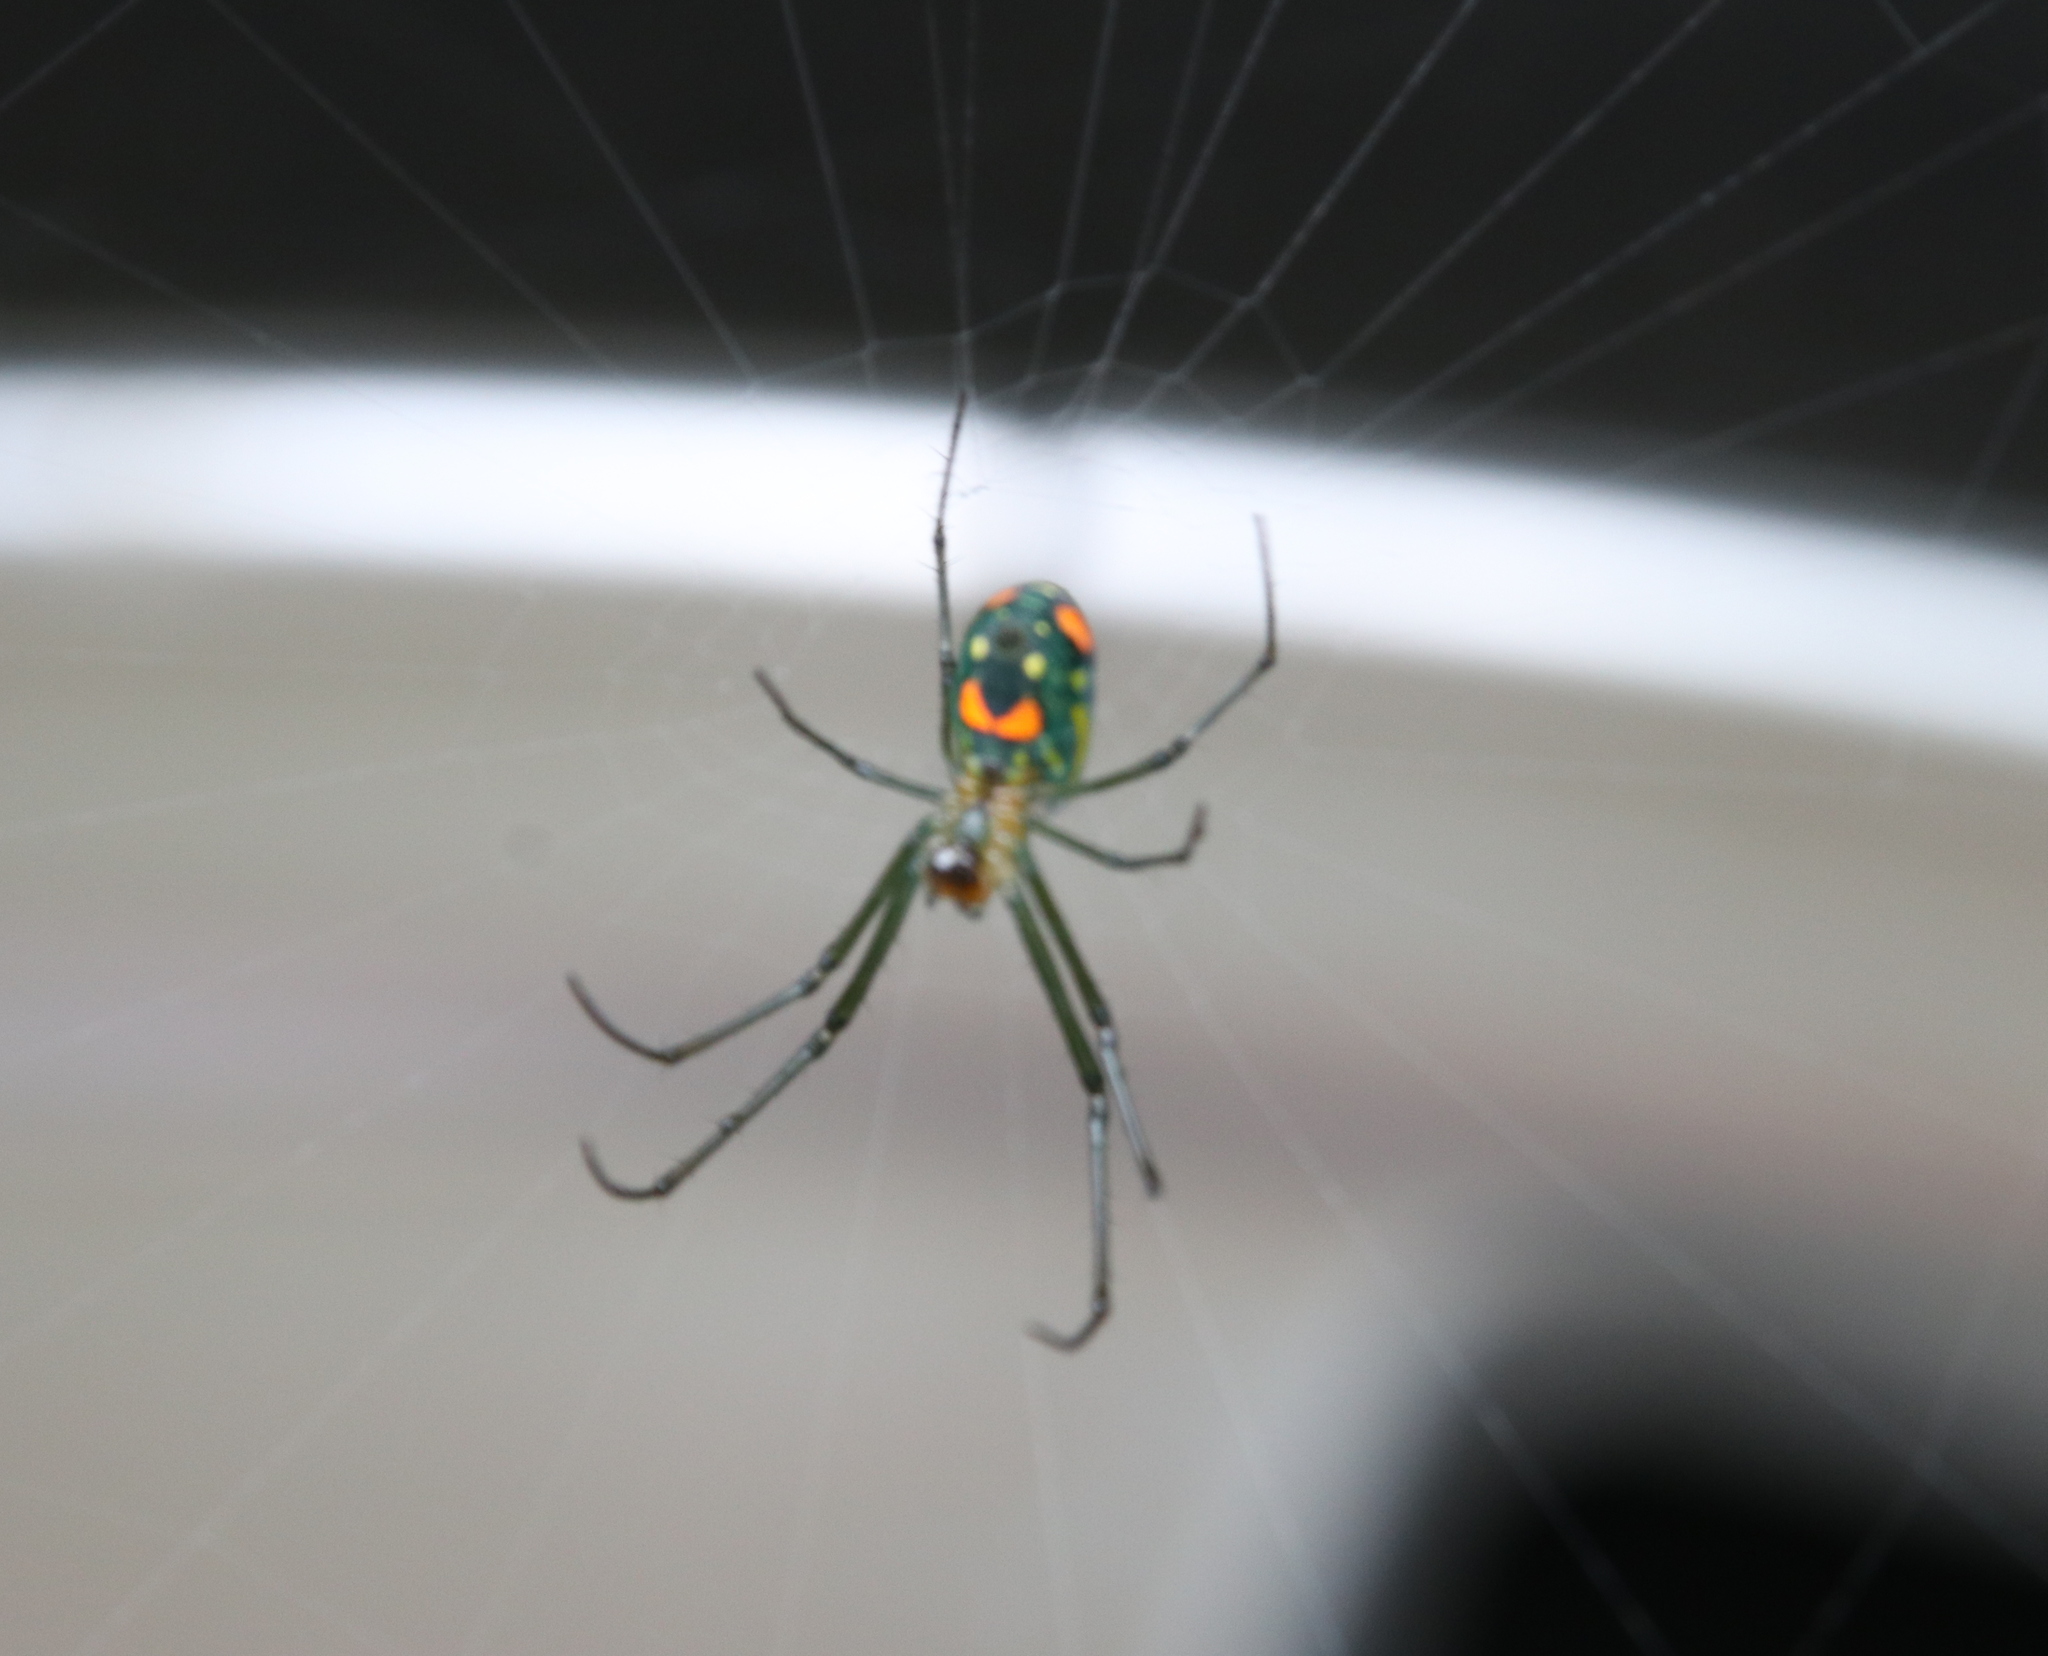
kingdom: Animalia
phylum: Arthropoda
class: Arachnida
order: Araneae
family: Tetragnathidae
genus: Leucauge
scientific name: Leucauge argyrobapta
